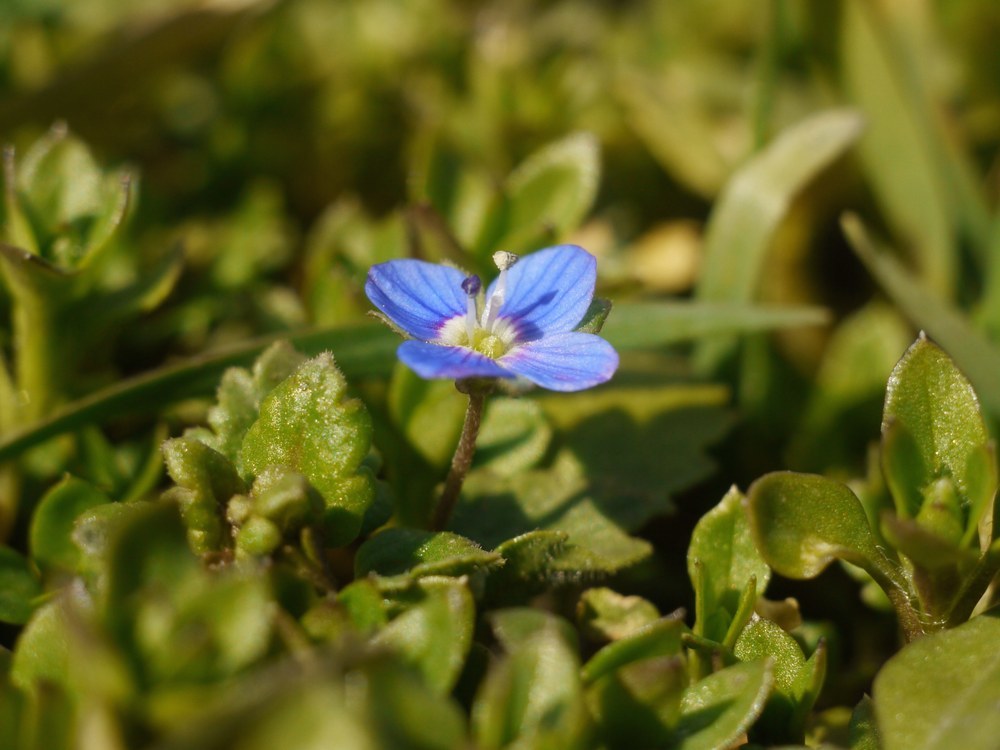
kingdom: Plantae
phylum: Tracheophyta
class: Magnoliopsida
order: Lamiales
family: Plantaginaceae
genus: Veronica
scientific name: Veronica polita
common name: Grey field-speedwell
